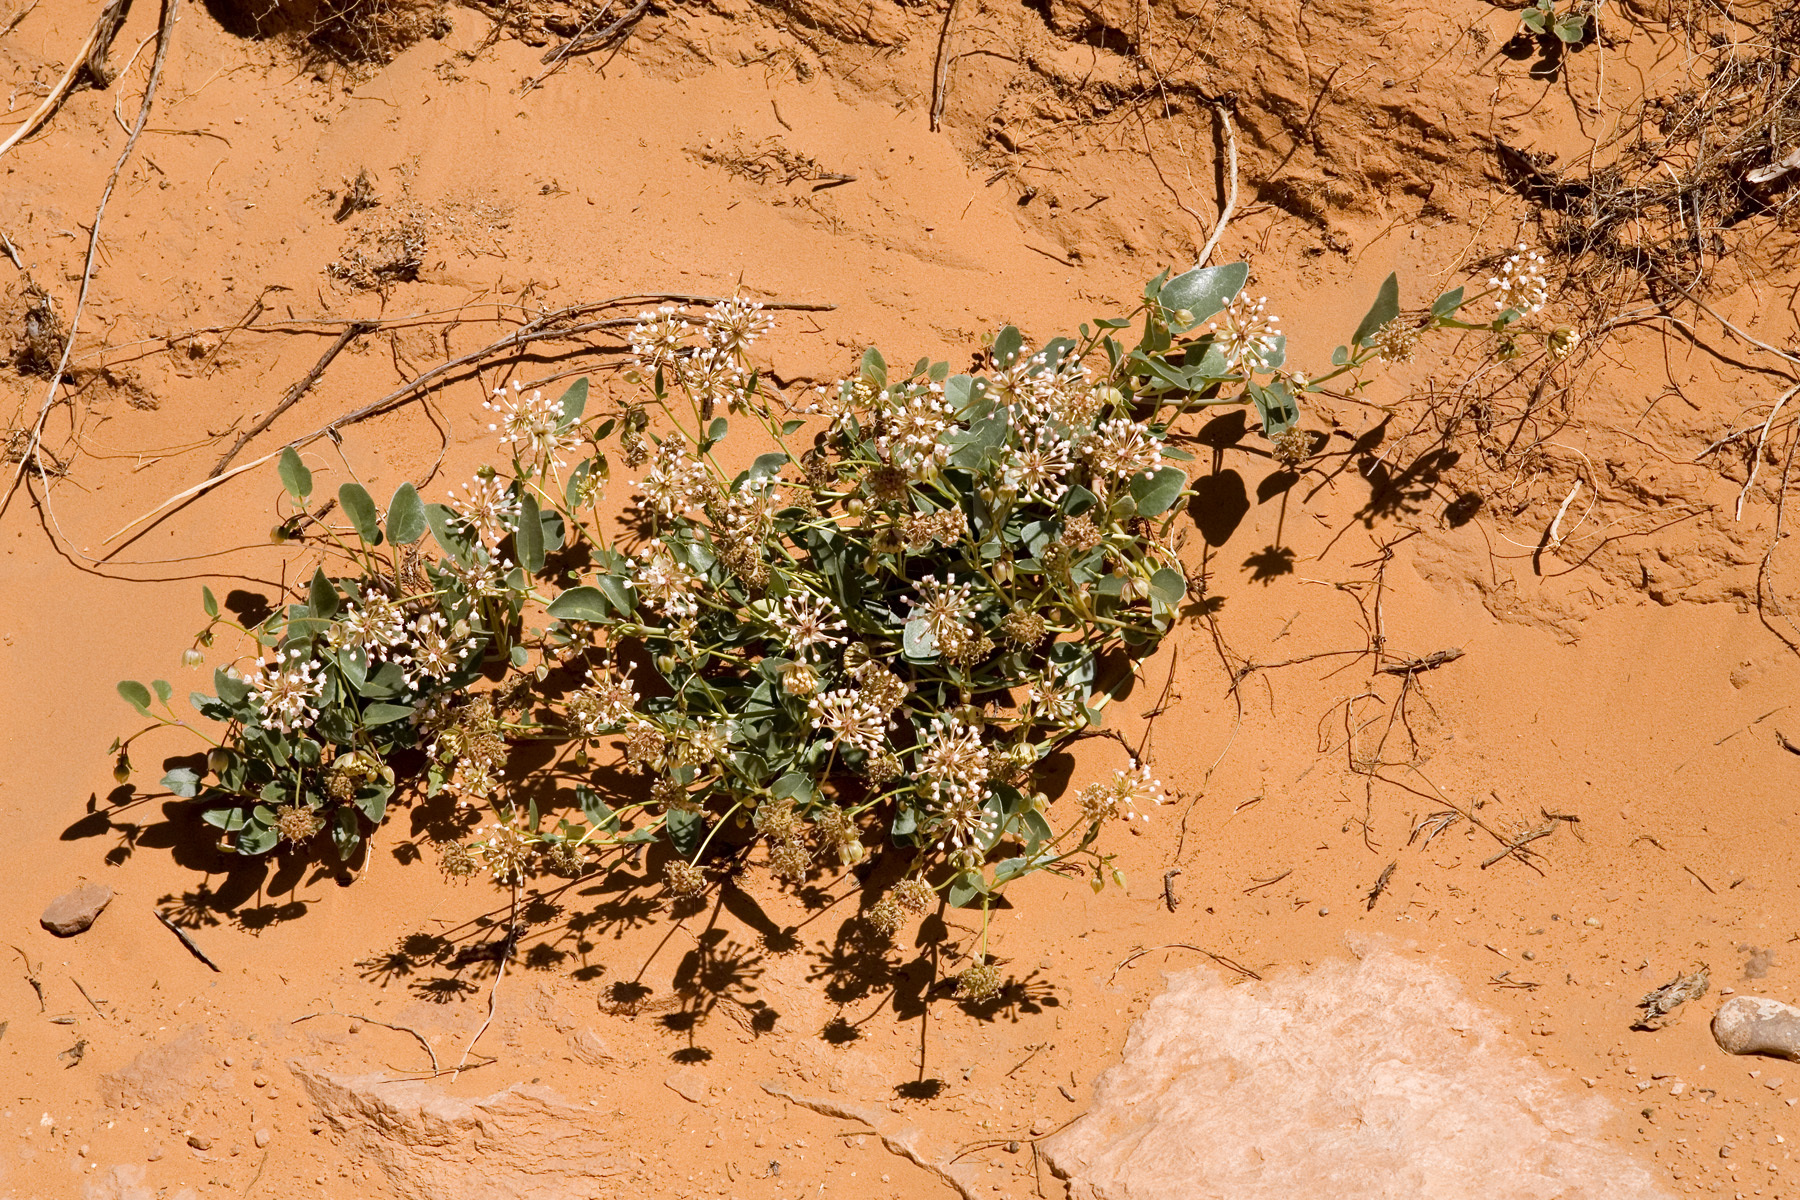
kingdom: Plantae
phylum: Tracheophyta
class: Magnoliopsida
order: Caryophyllales
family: Nyctaginaceae
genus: Abronia
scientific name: Abronia elliptica
